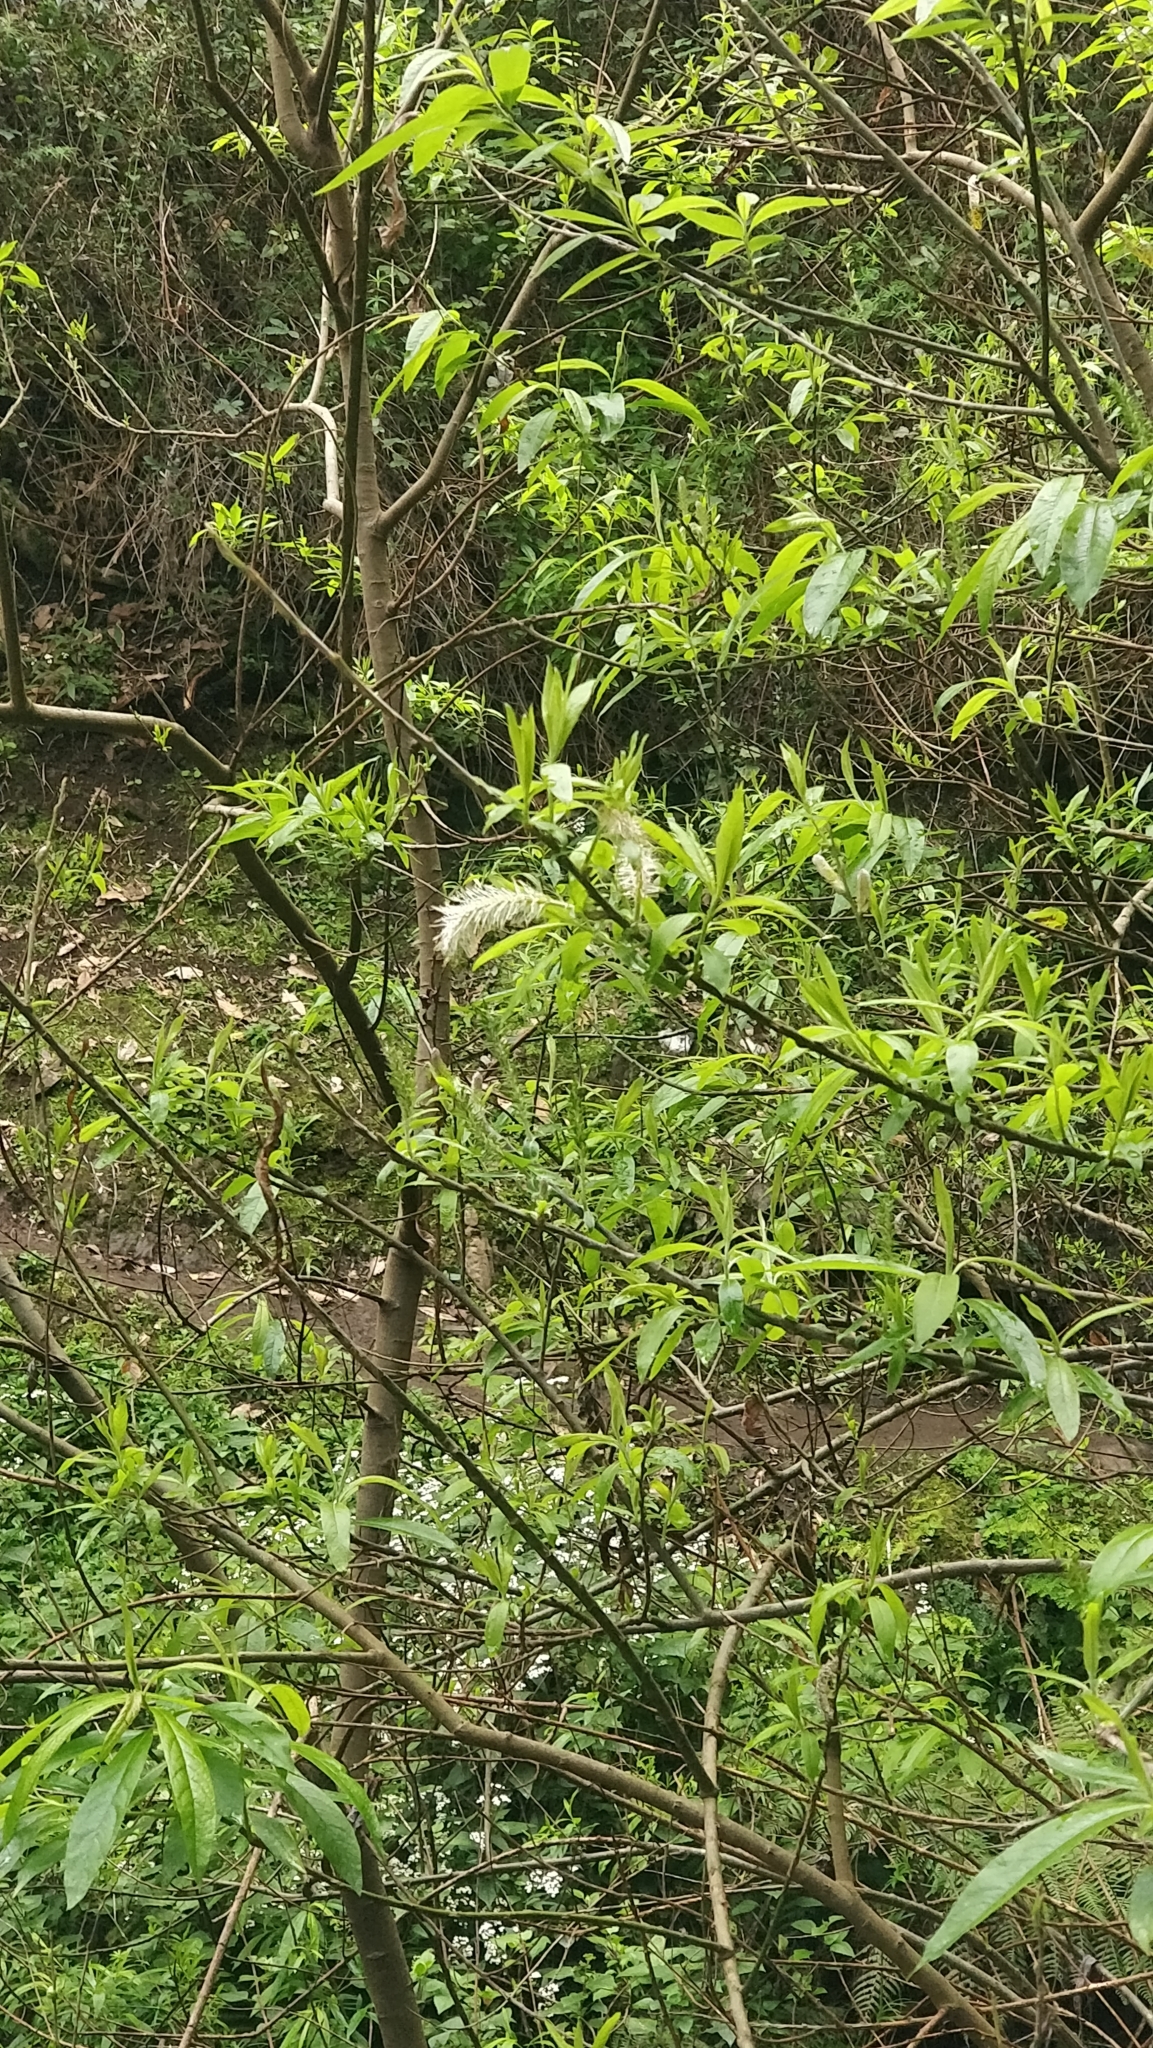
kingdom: Plantae
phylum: Tracheophyta
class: Magnoliopsida
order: Malpighiales
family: Salicaceae
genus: Salix
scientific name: Salix canariensis
